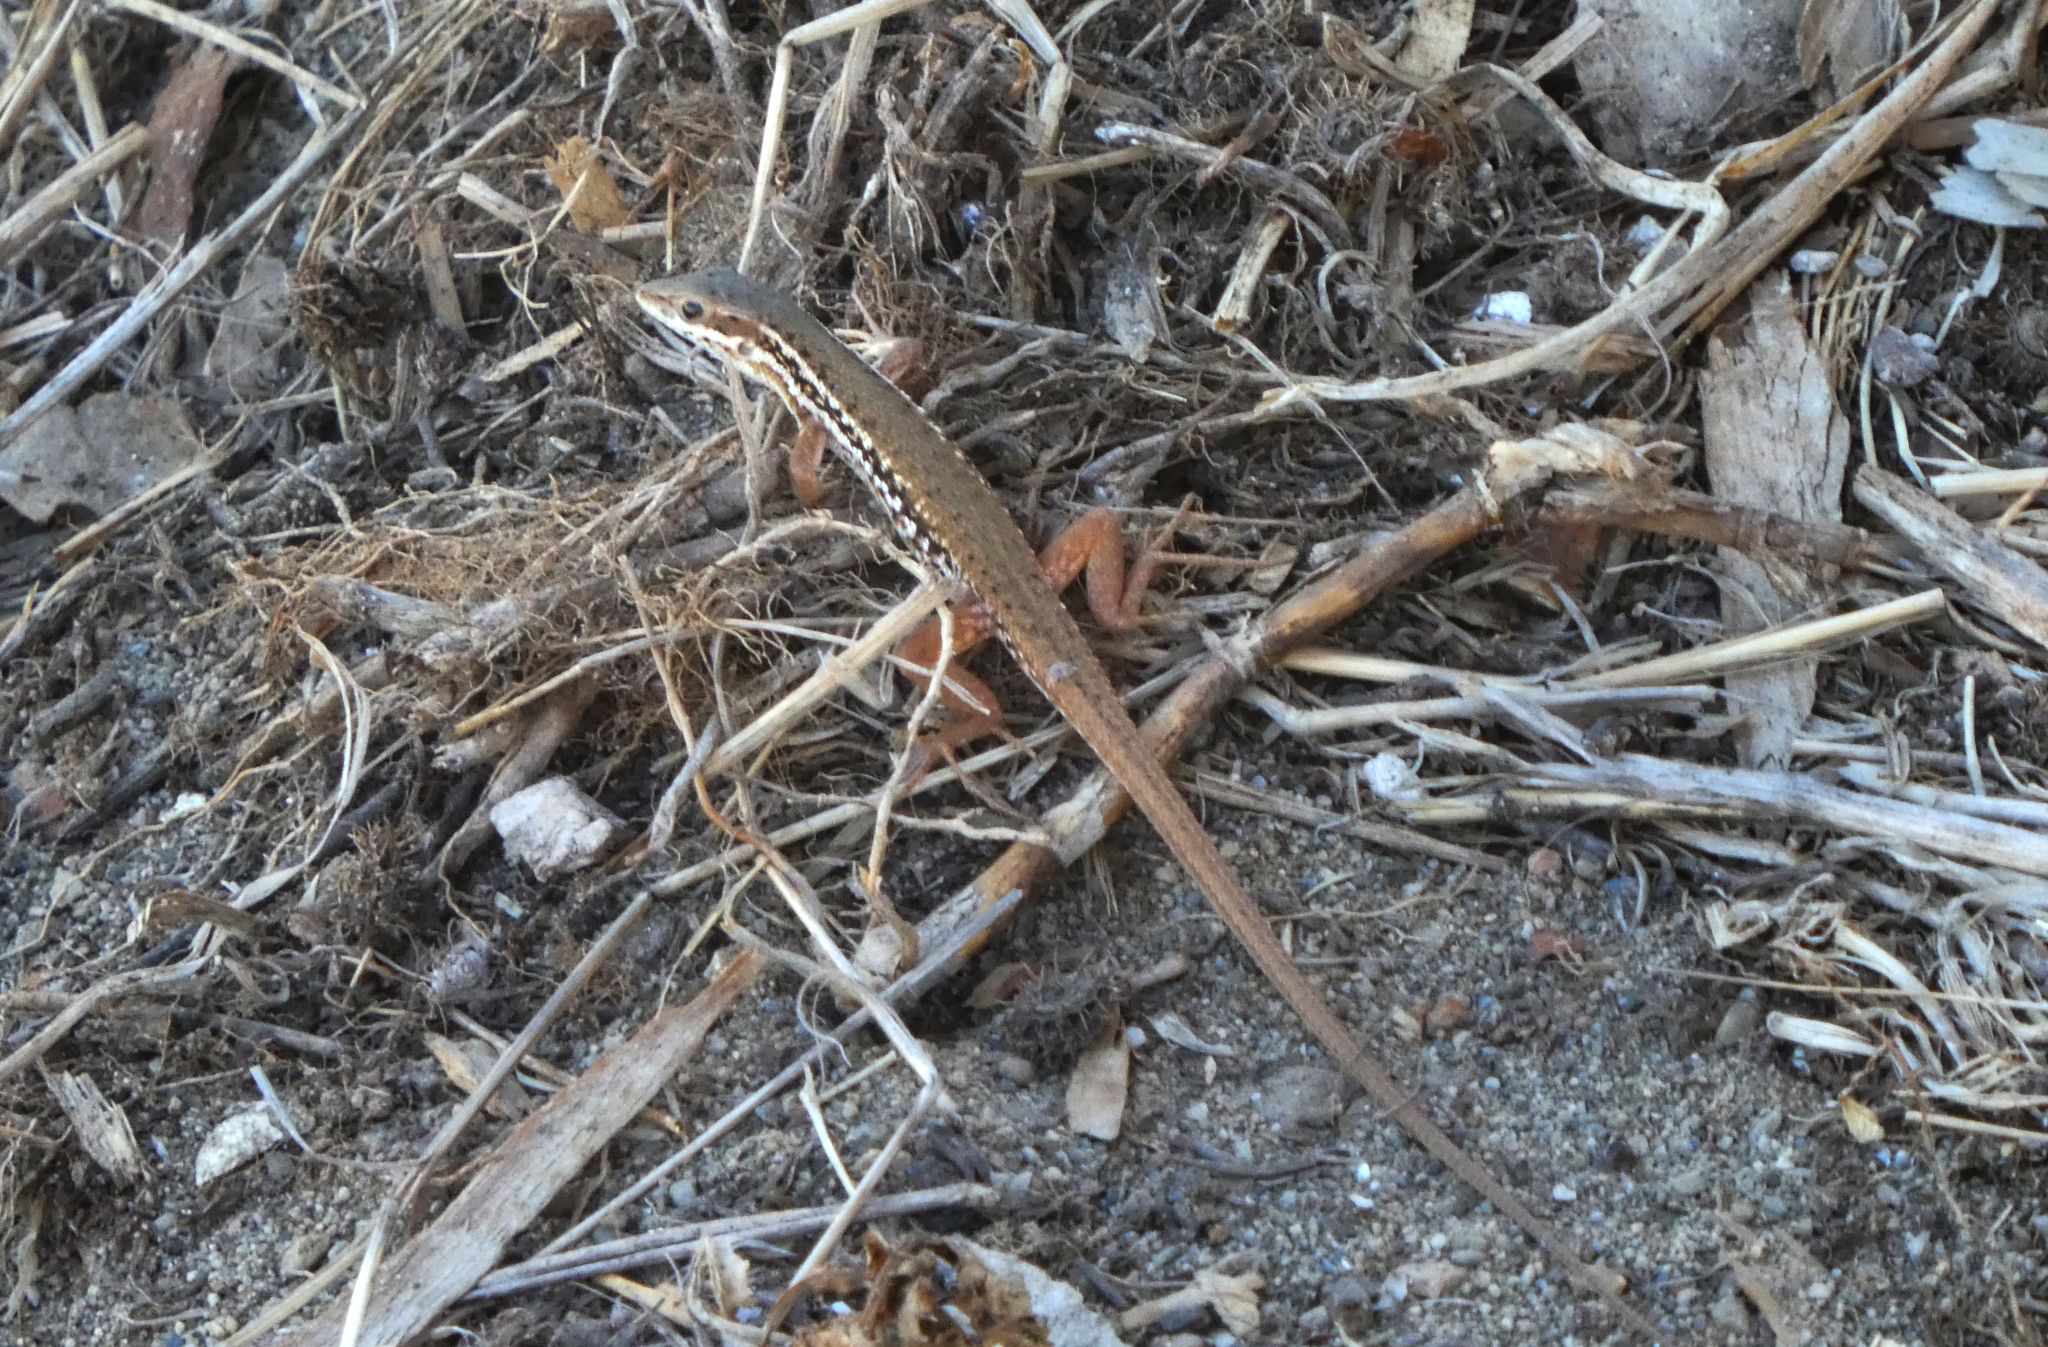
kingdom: Animalia
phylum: Chordata
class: Squamata
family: Lacertidae
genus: Ophisops
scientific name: Ophisops elegans
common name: Snake-eyed lizard
